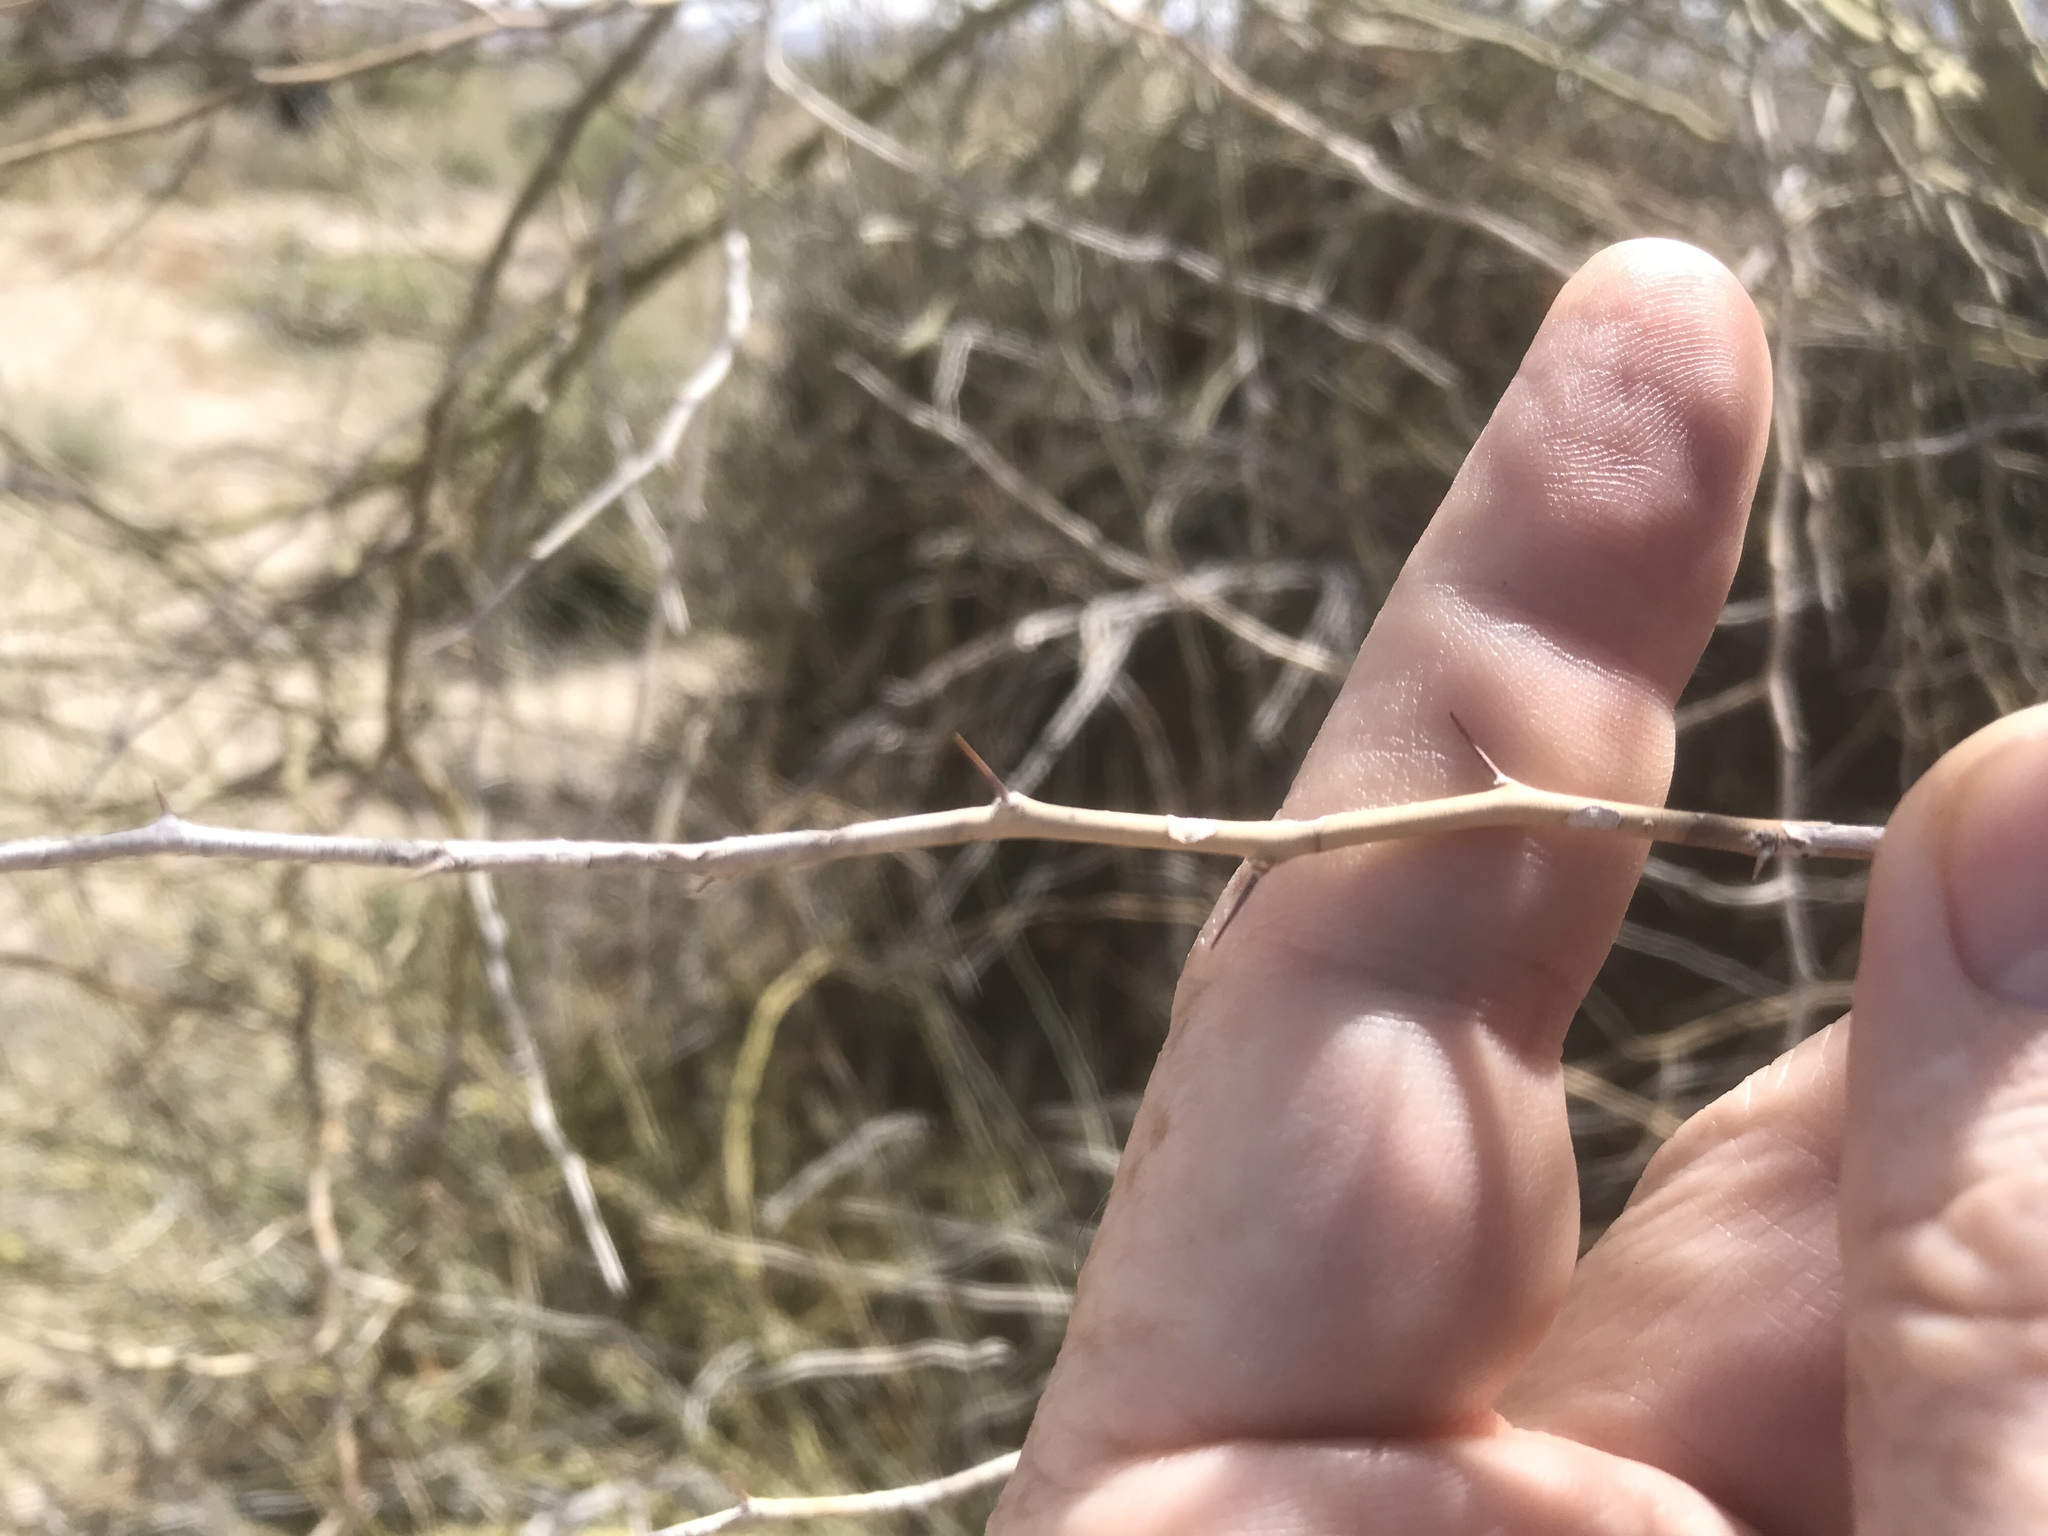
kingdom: Plantae
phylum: Tracheophyta
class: Magnoliopsida
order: Fabales
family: Fabaceae
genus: Parkinsonia
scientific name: Parkinsonia florida
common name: Blue paloverde
